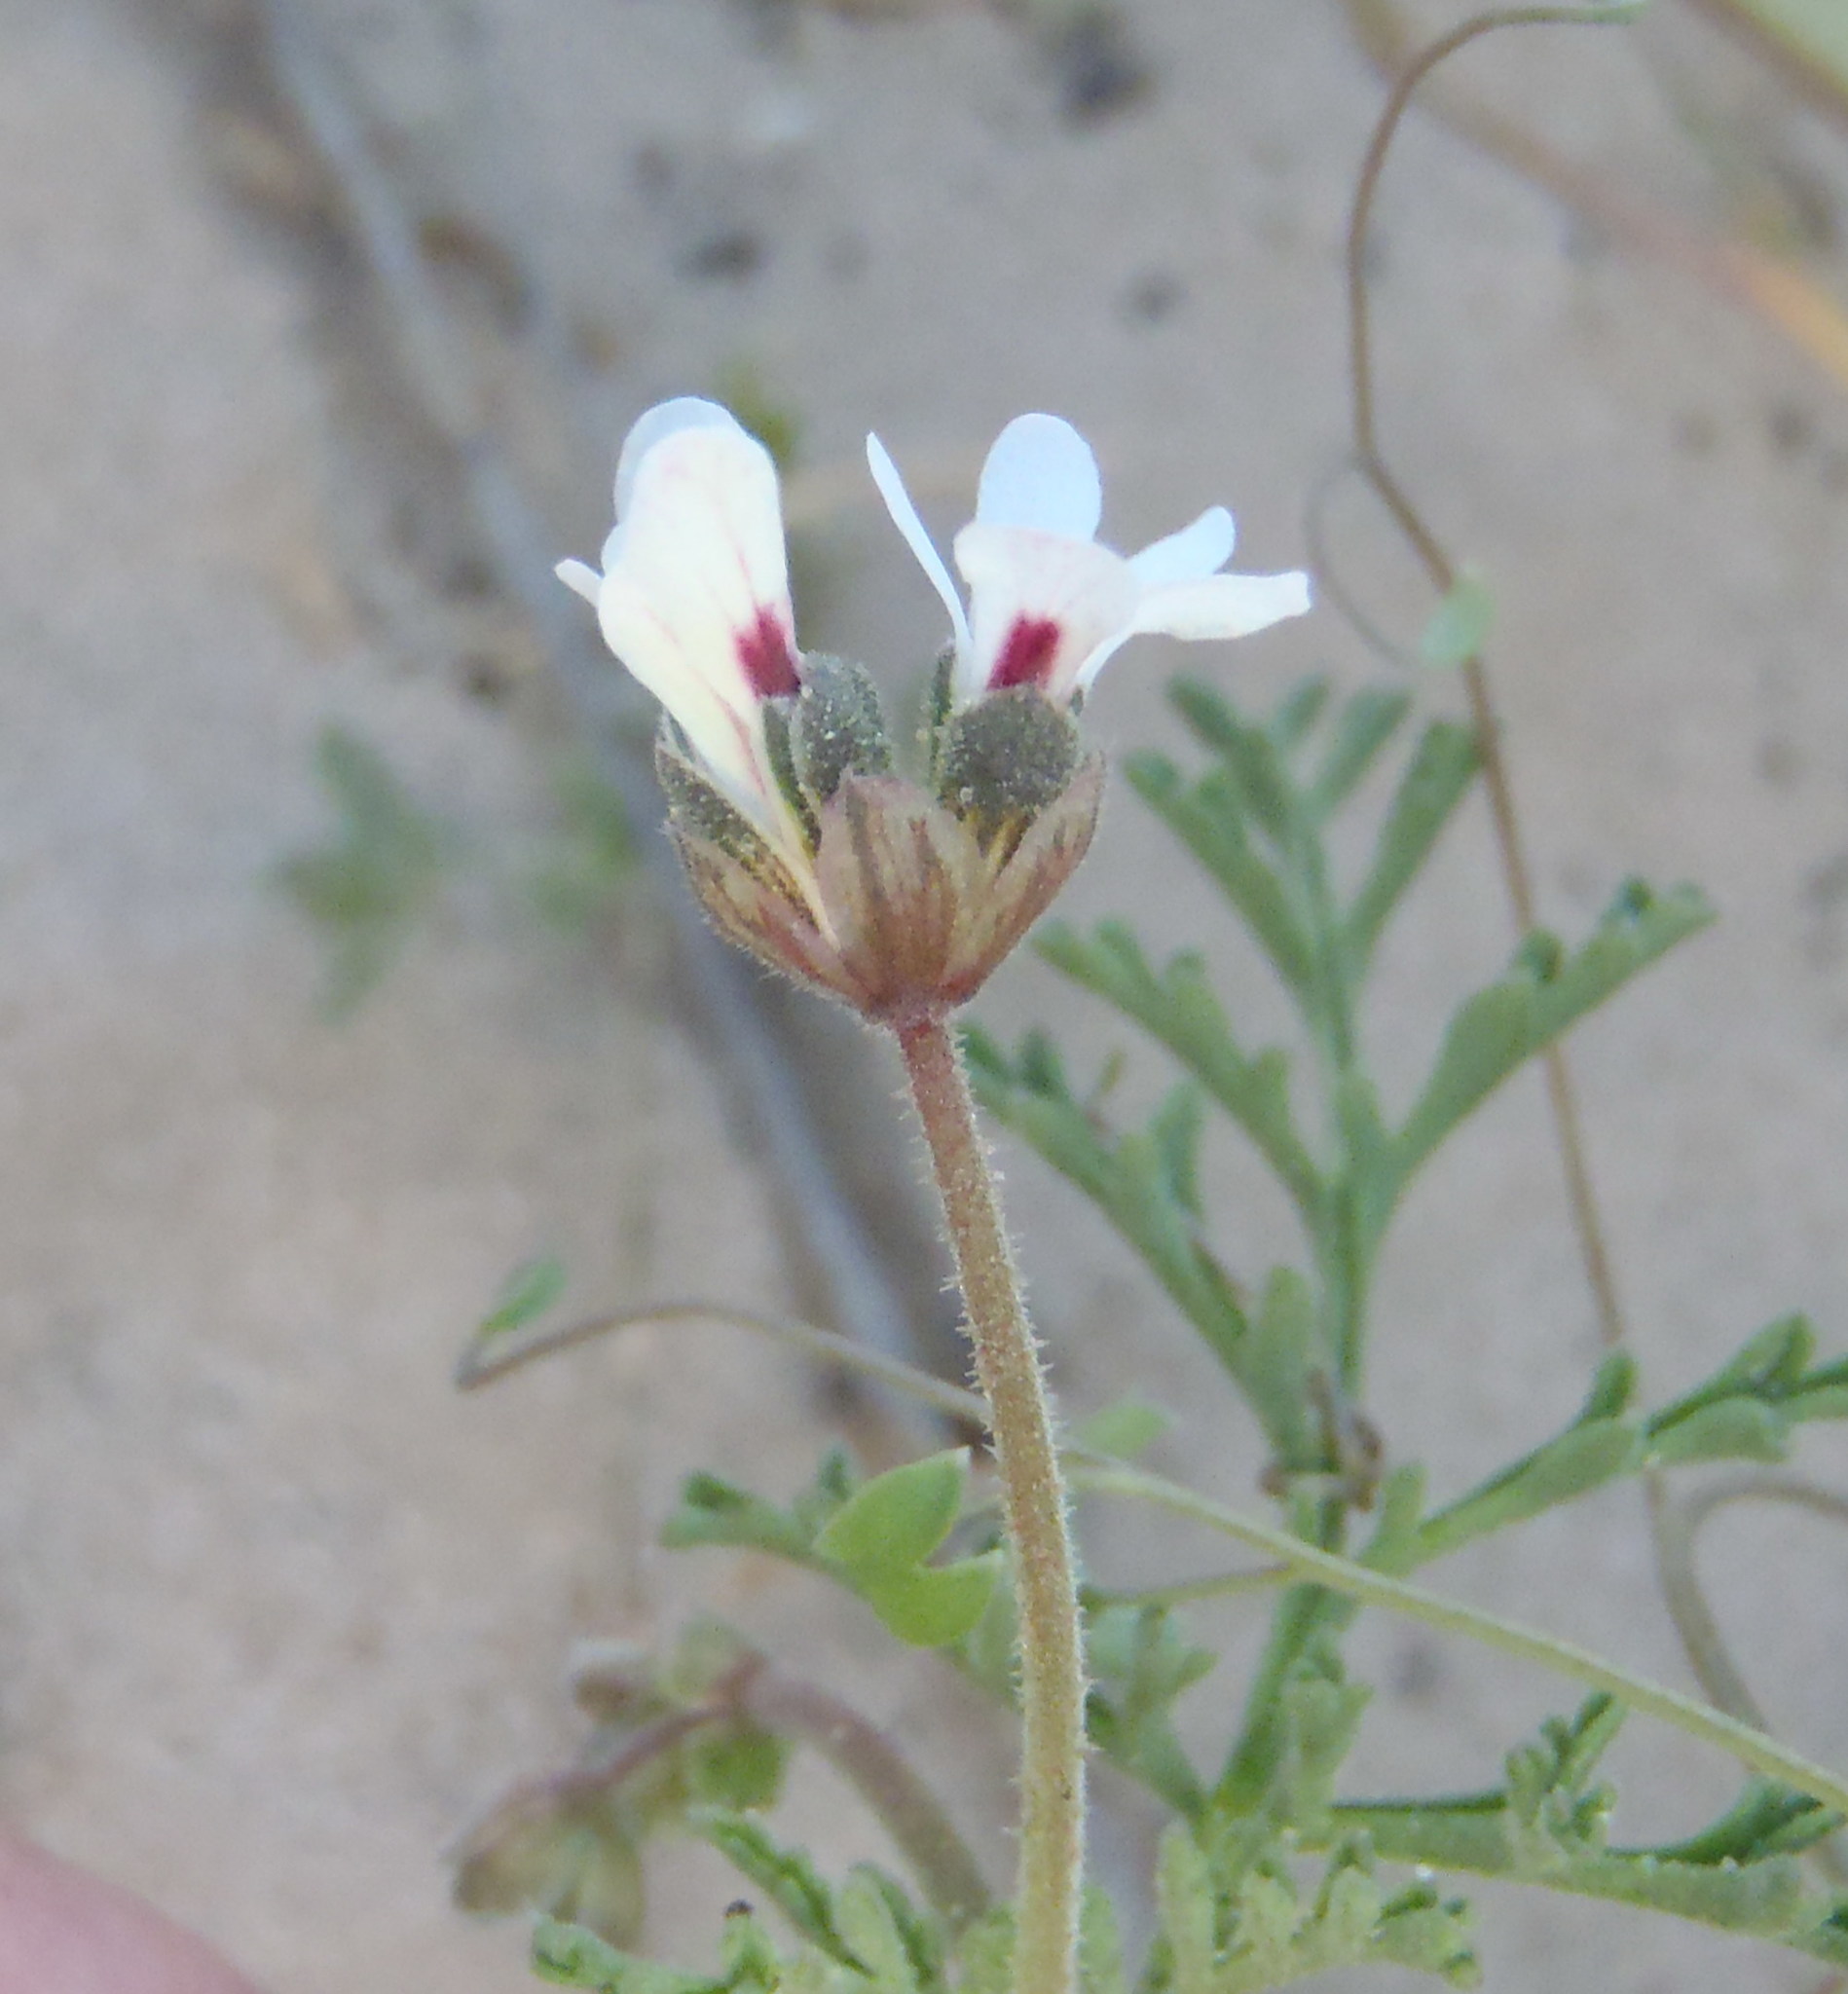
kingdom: Plantae
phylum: Tracheophyta
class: Magnoliopsida
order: Geraniales
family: Geraniaceae
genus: Pelargonium
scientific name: Pelargonium senecioides
